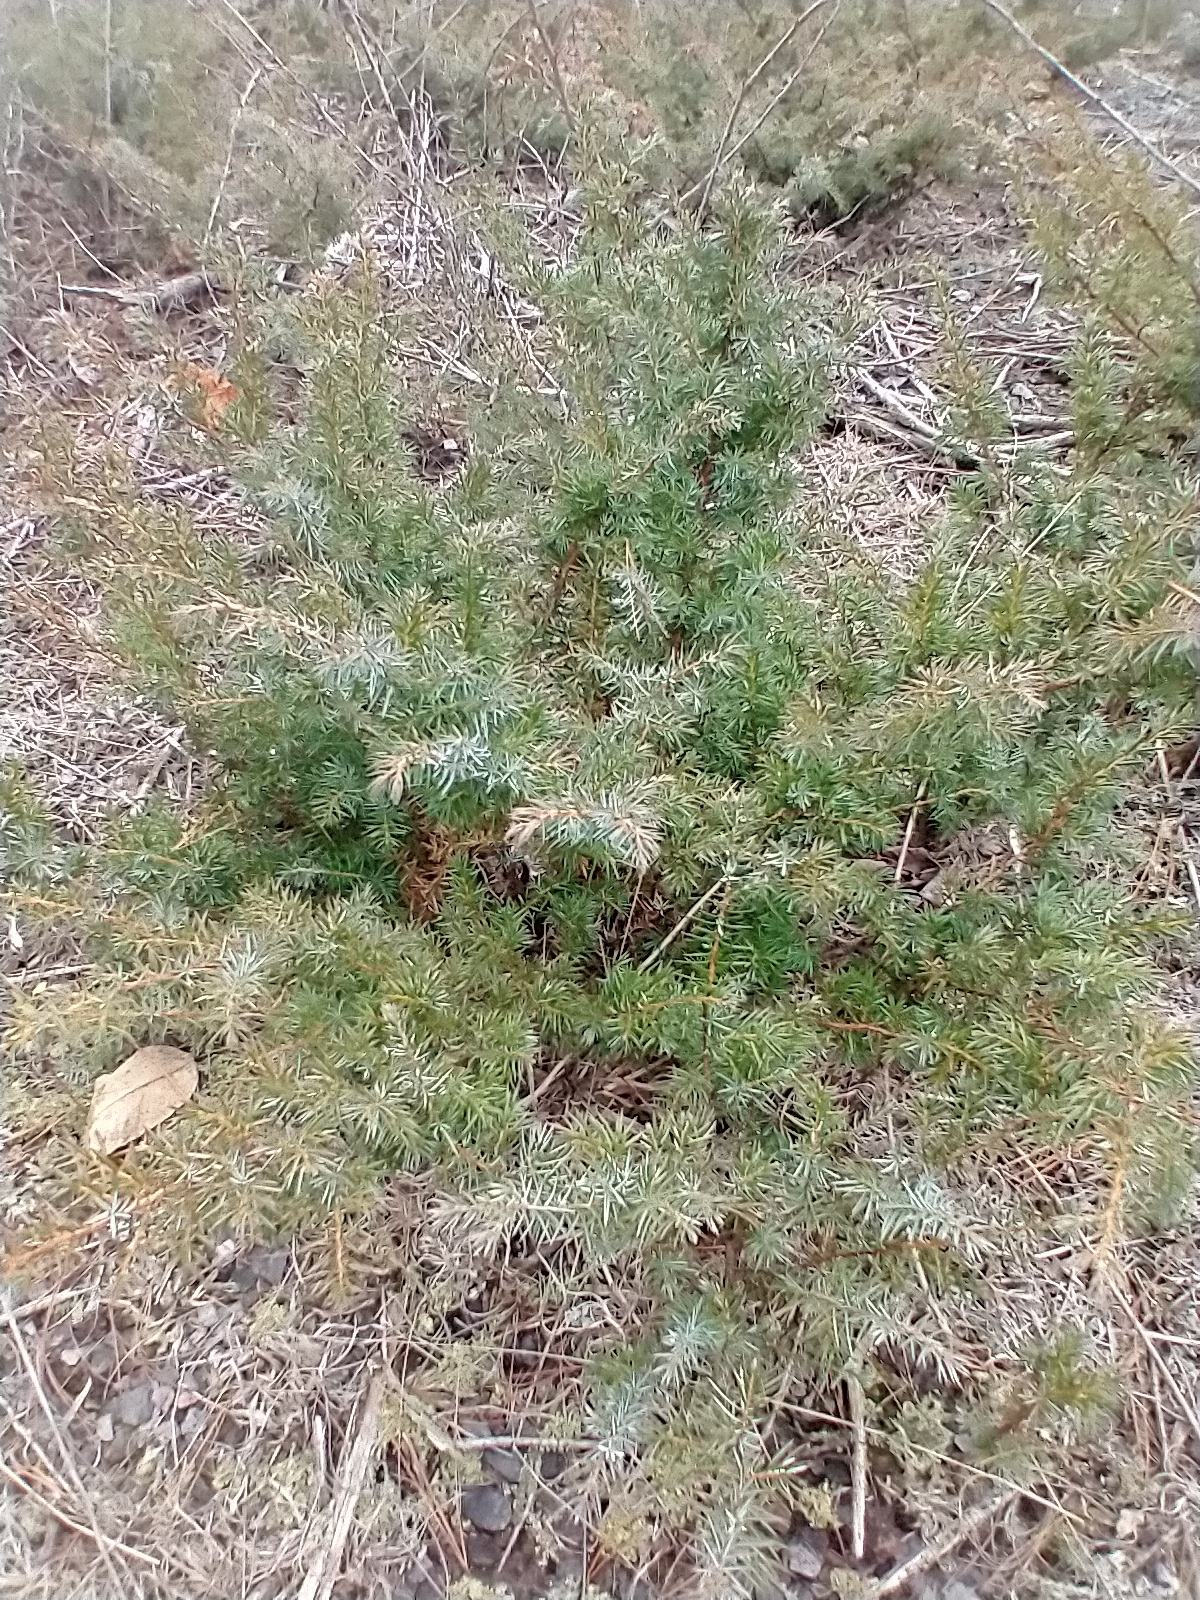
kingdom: Plantae
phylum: Tracheophyta
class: Pinopsida
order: Pinales
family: Cupressaceae
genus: Juniperus
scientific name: Juniperus communis
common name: Common juniper
